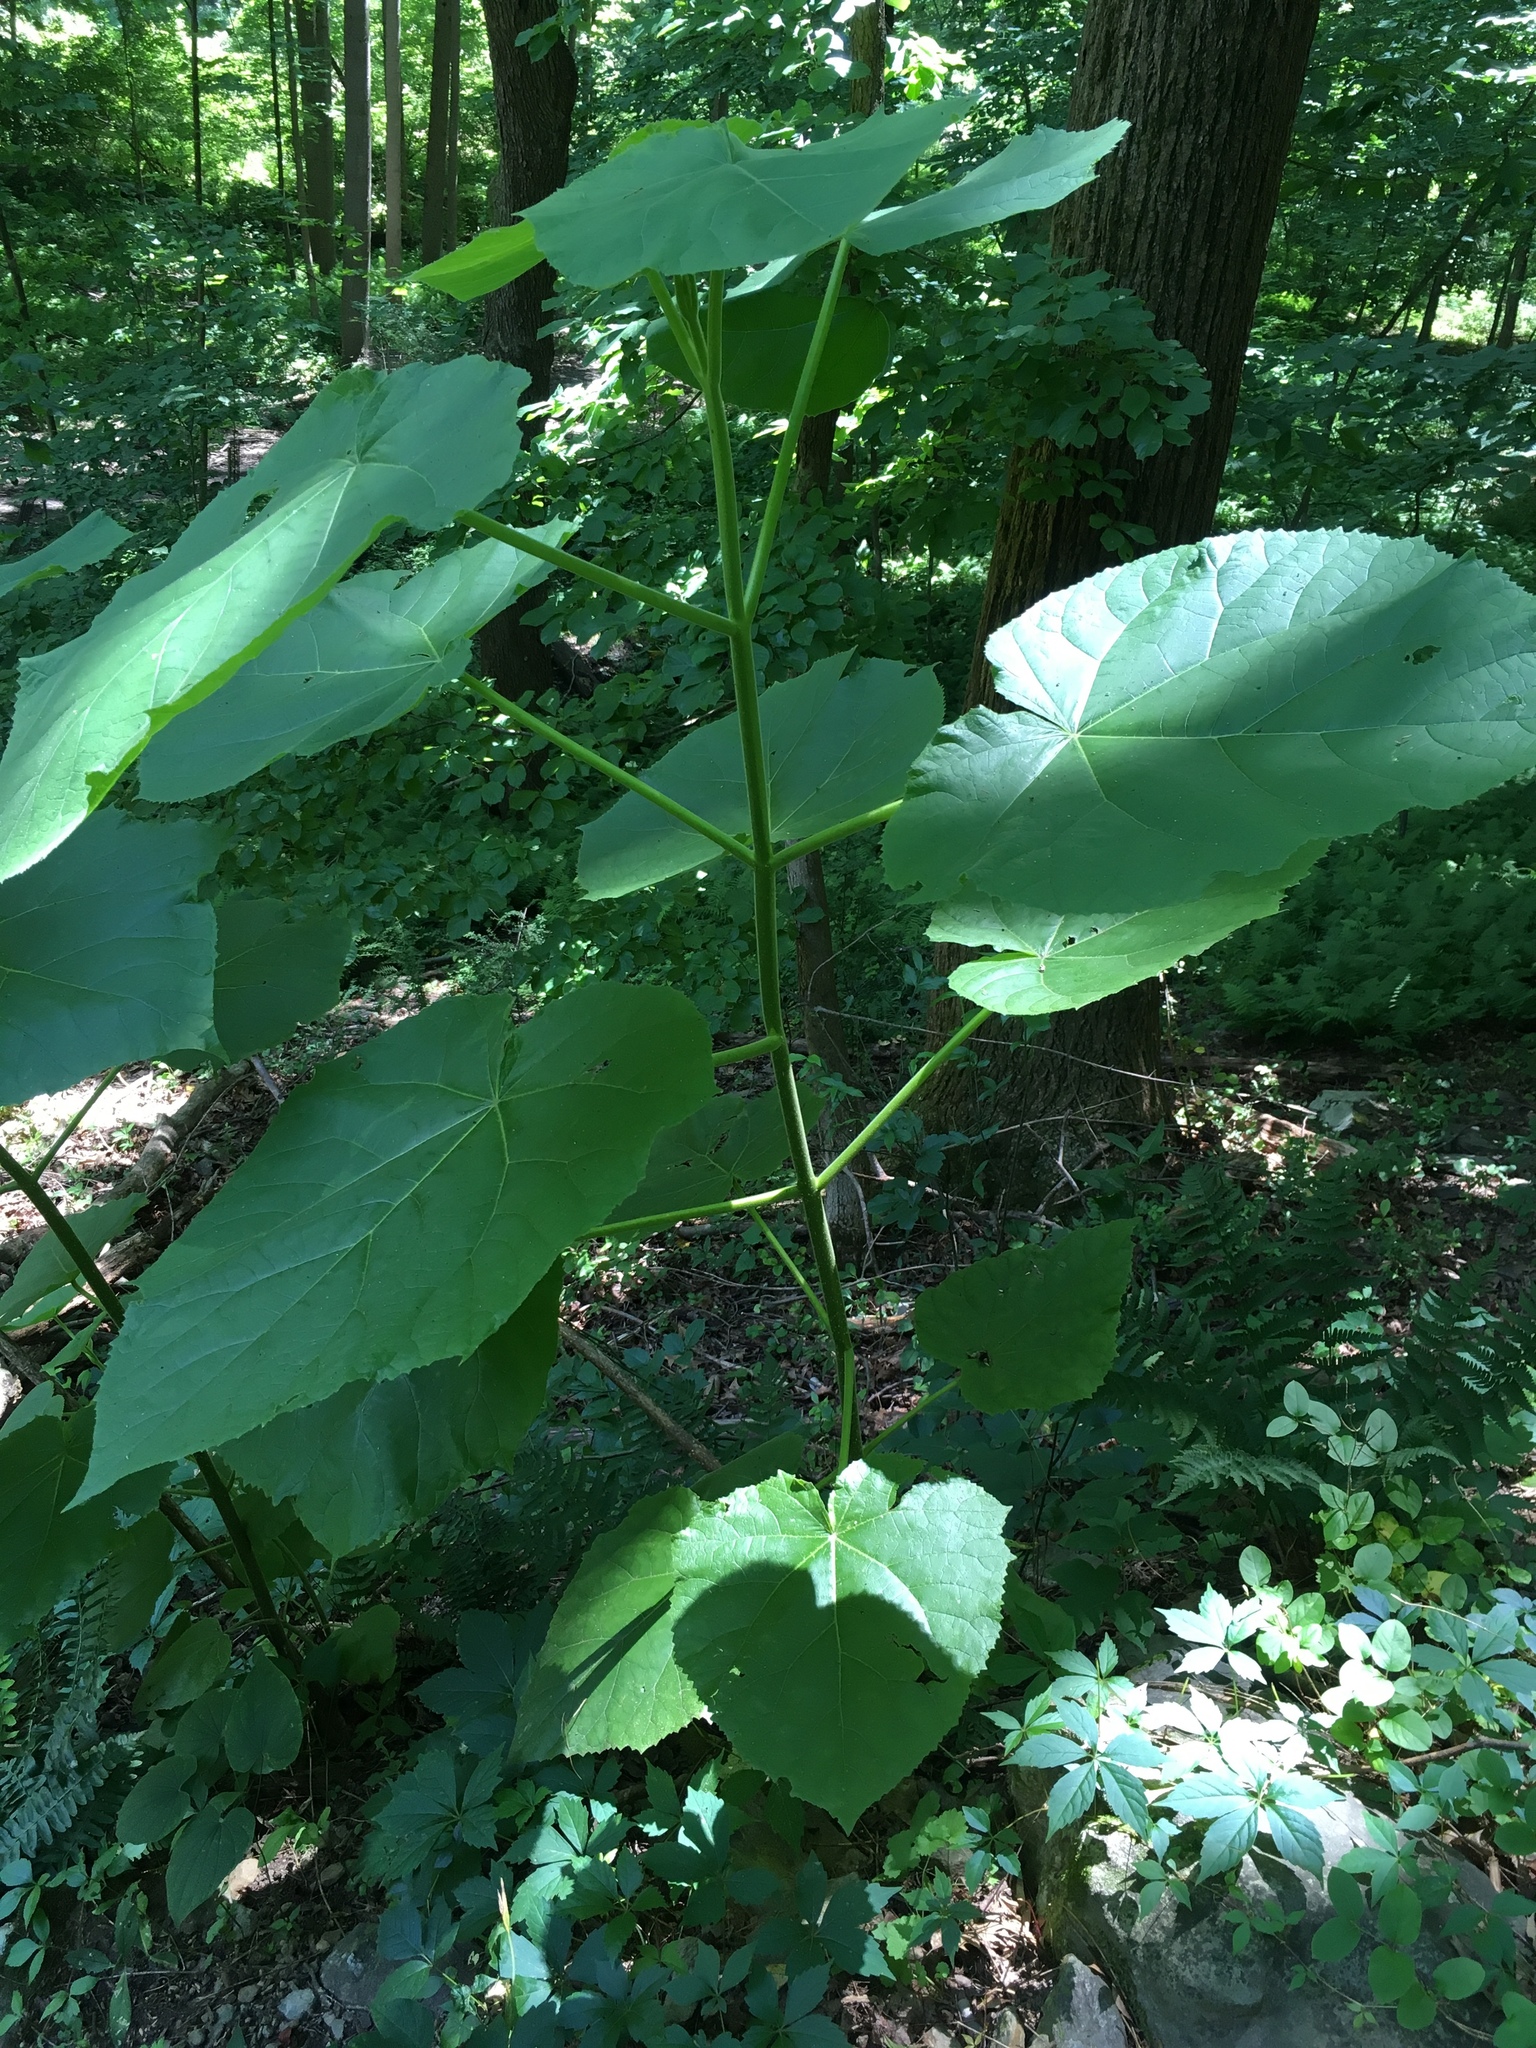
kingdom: Plantae
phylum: Tracheophyta
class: Magnoliopsida
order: Lamiales
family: Paulowniaceae
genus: Paulownia
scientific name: Paulownia tomentosa
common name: Foxglove-tree
